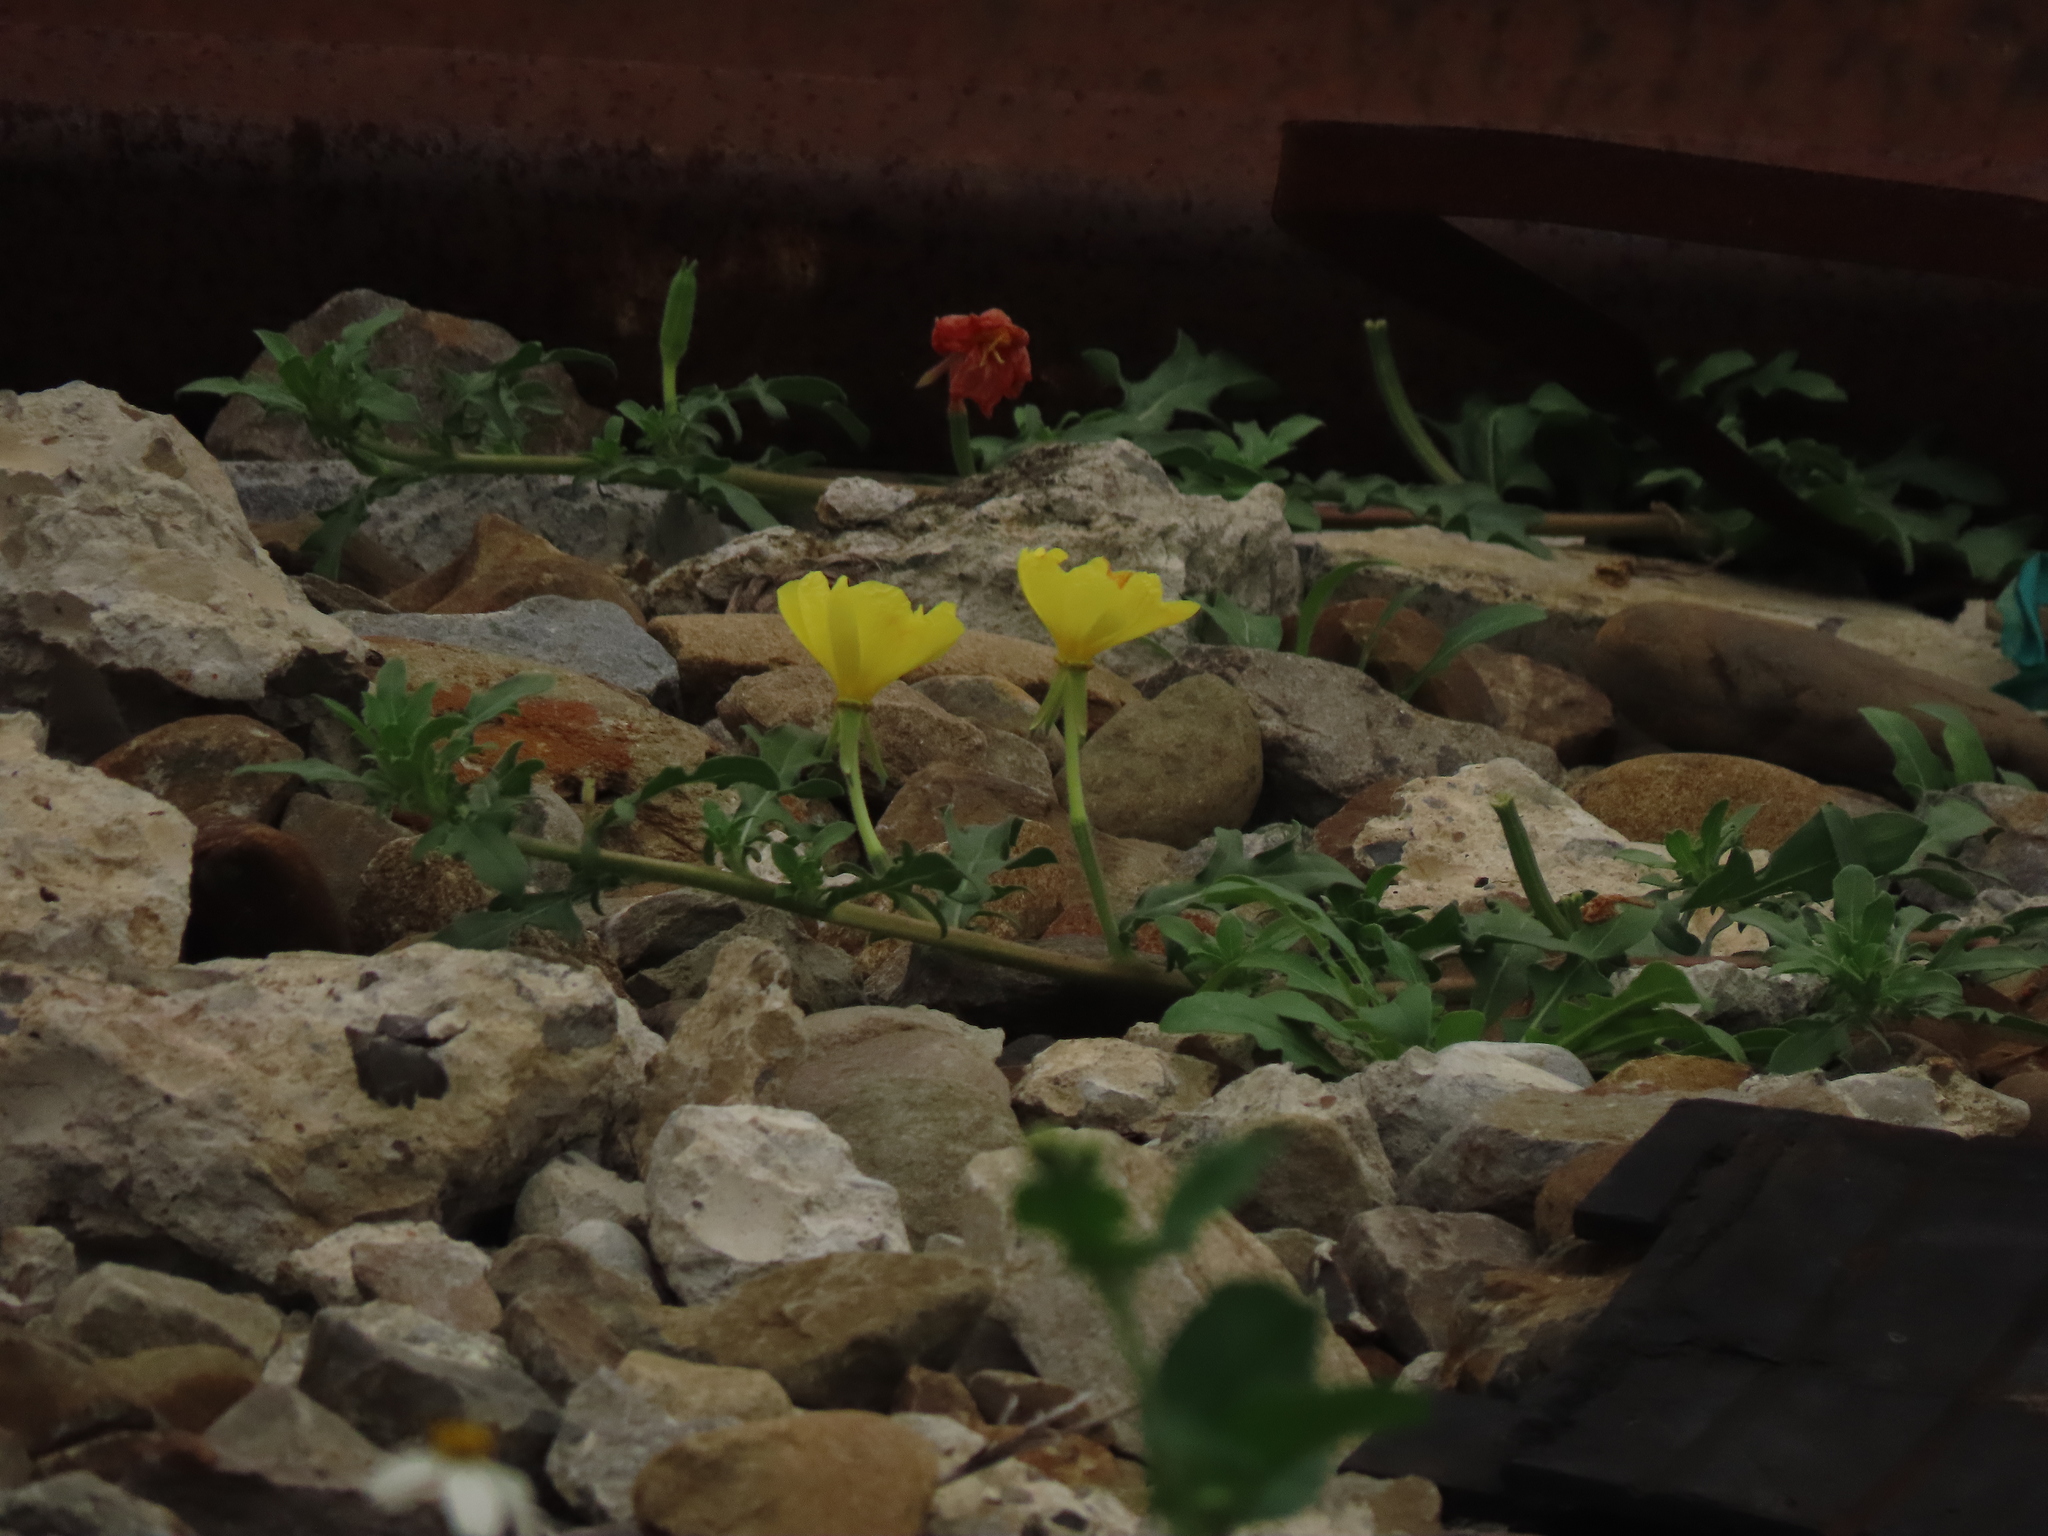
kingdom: Plantae
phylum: Tracheophyta
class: Magnoliopsida
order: Myrtales
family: Onagraceae
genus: Oenothera
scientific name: Oenothera laciniata
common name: Cut-leaved evening-primrose
